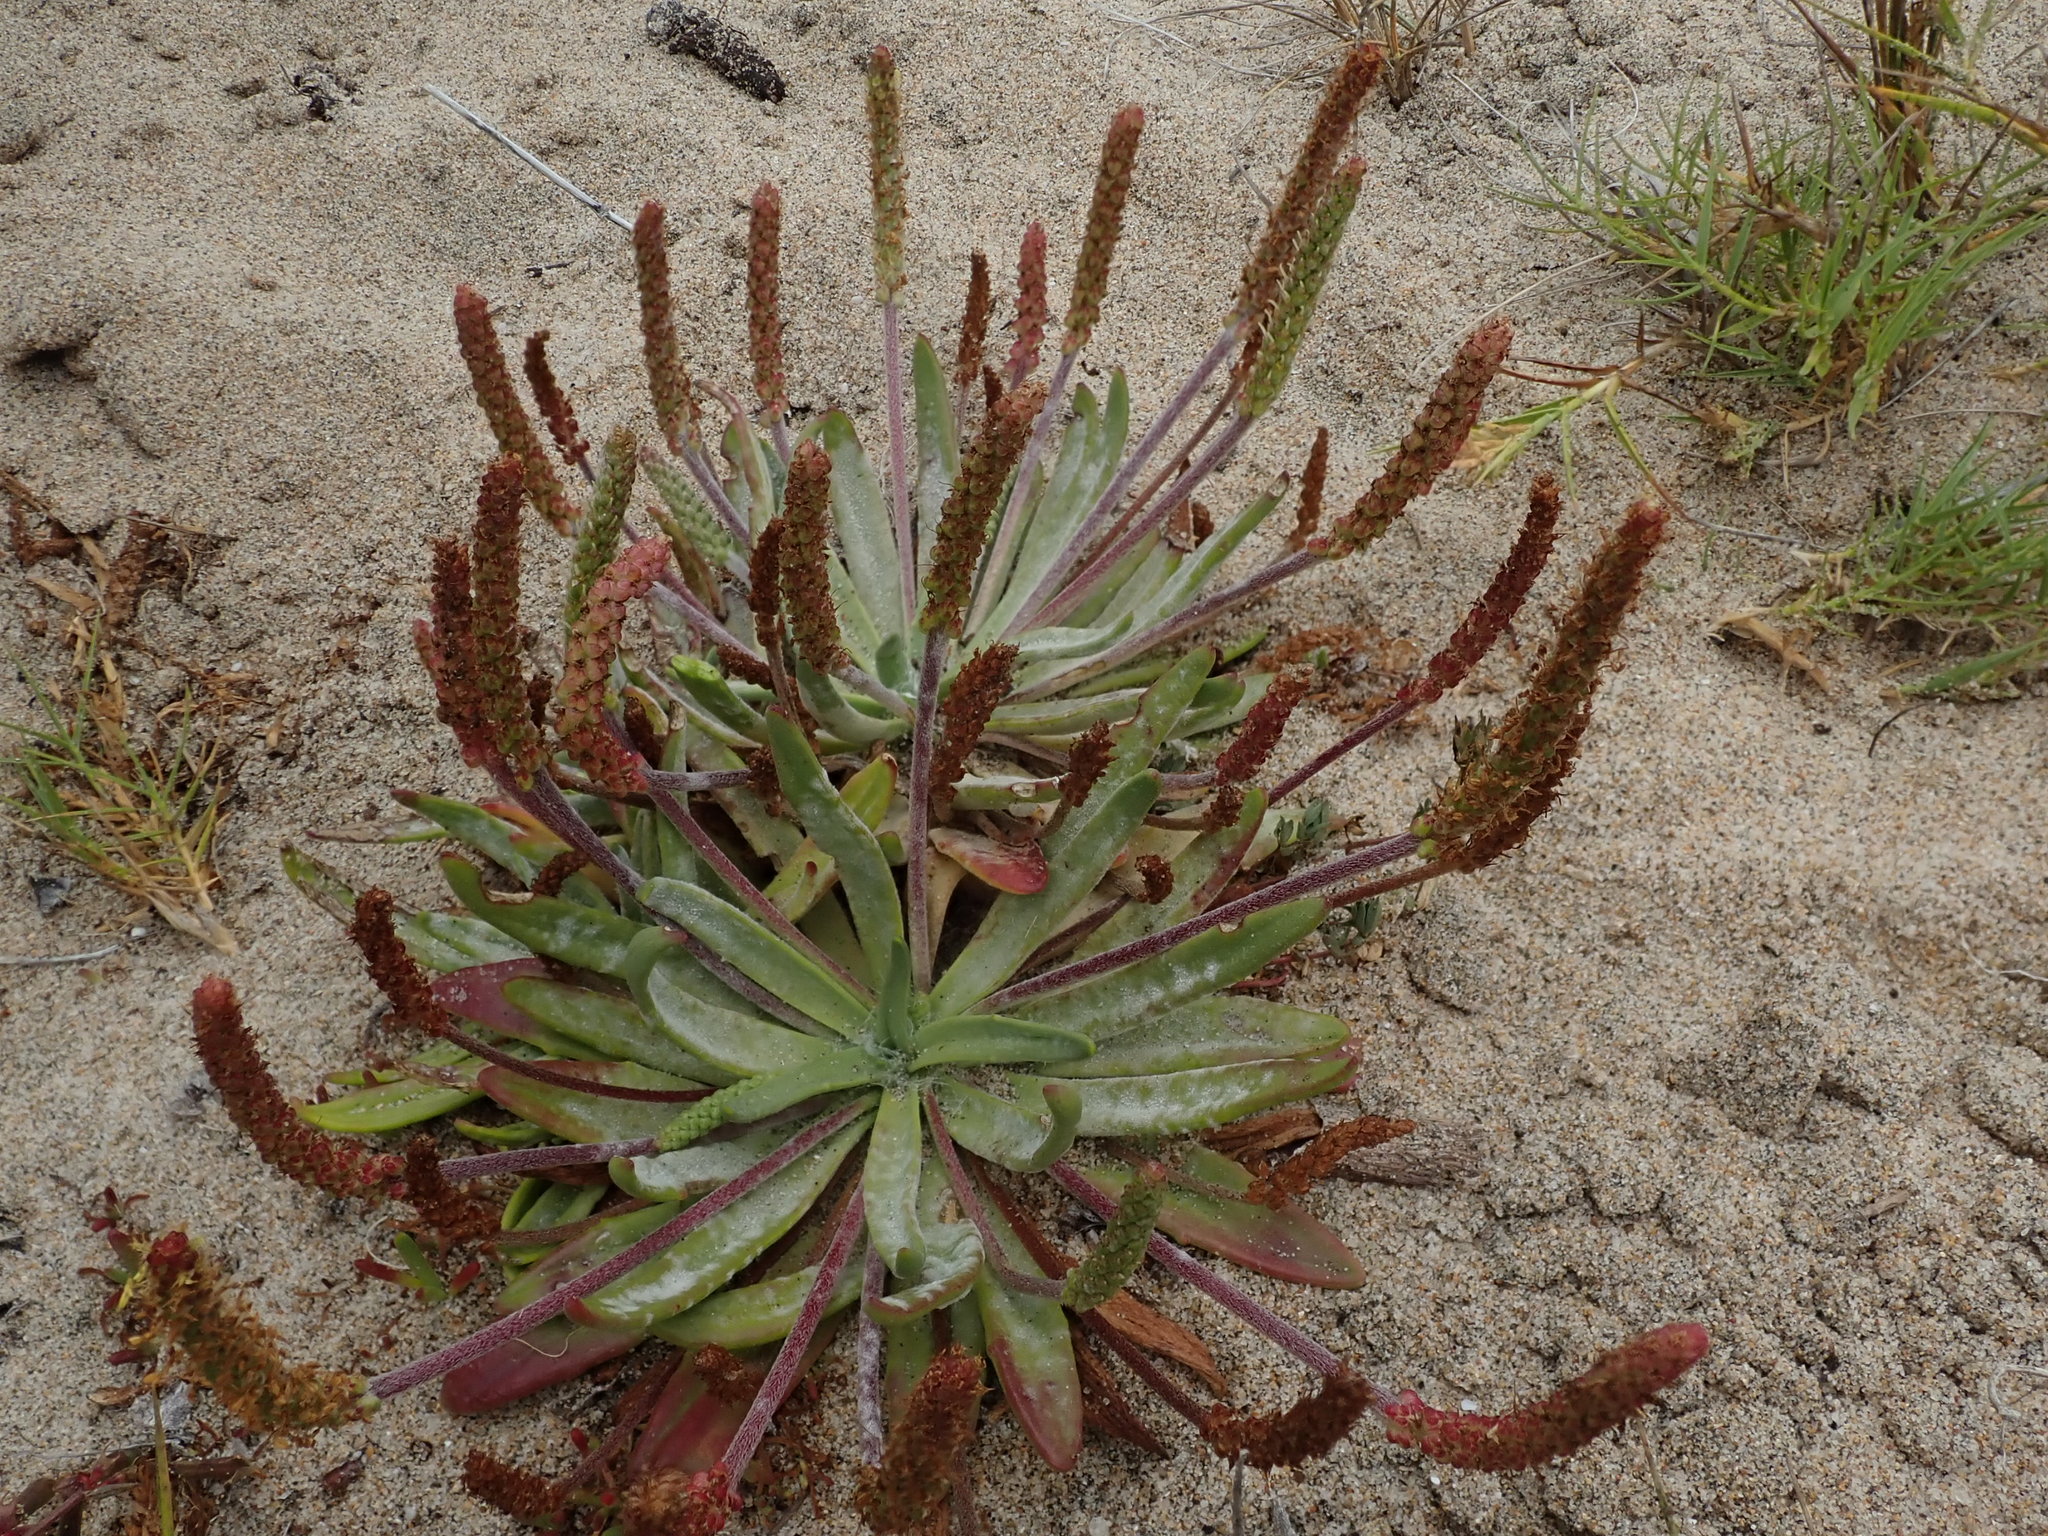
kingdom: Plantae
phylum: Tracheophyta
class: Magnoliopsida
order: Lamiales
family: Plantaginaceae
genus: Plantago
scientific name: Plantago maritima
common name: Sea plantain
